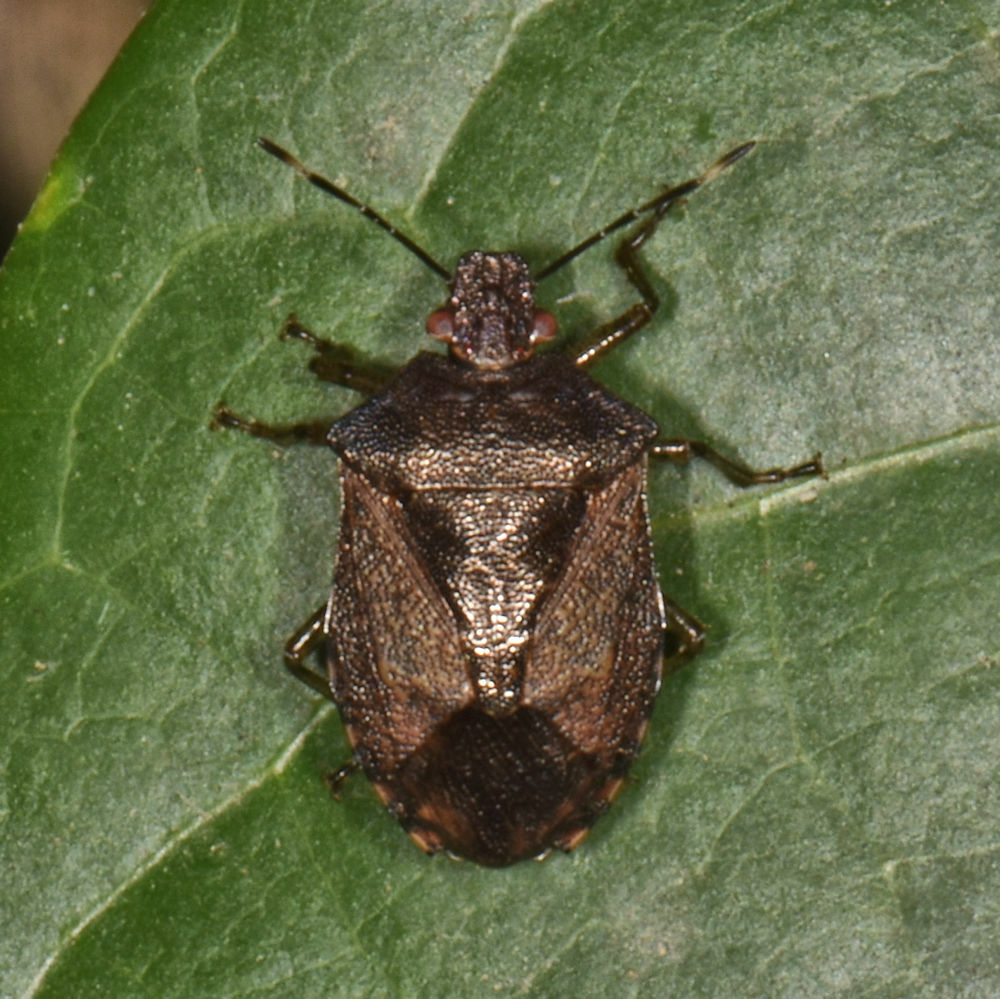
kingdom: Animalia
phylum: Arthropoda
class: Insecta
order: Hemiptera
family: Pentatomidae
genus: Podisus
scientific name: Podisus
